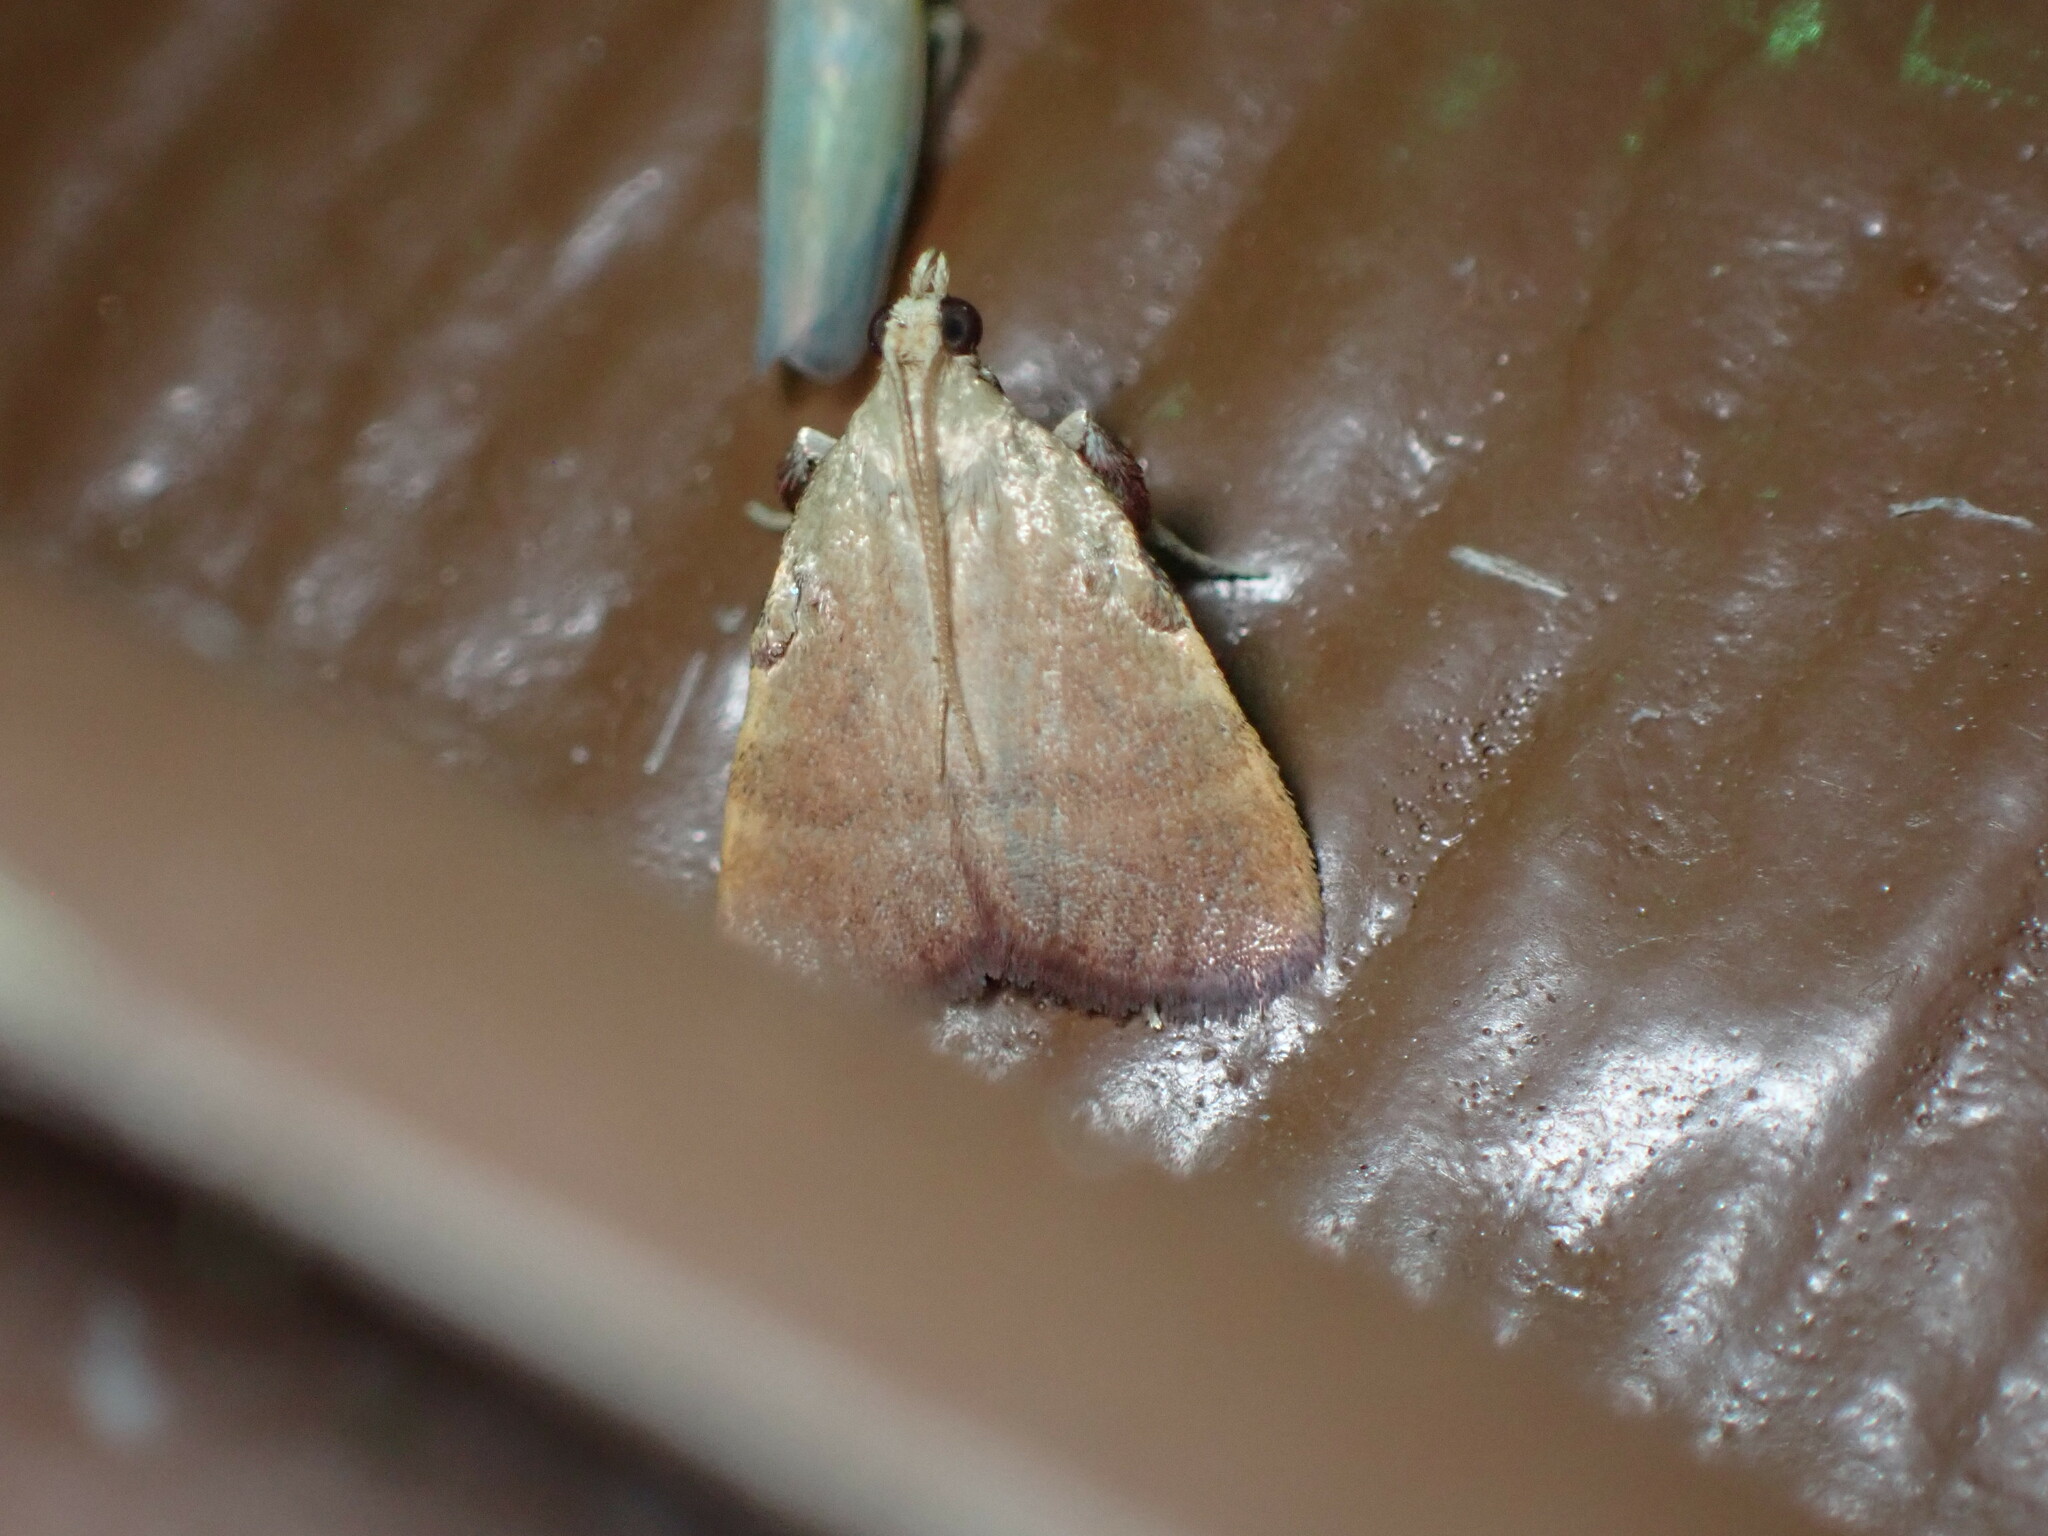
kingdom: Animalia
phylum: Arthropoda
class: Insecta
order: Lepidoptera
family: Pyralidae
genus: Condylolomia
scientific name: Condylolomia participialis
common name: Drab condylolomia moth
